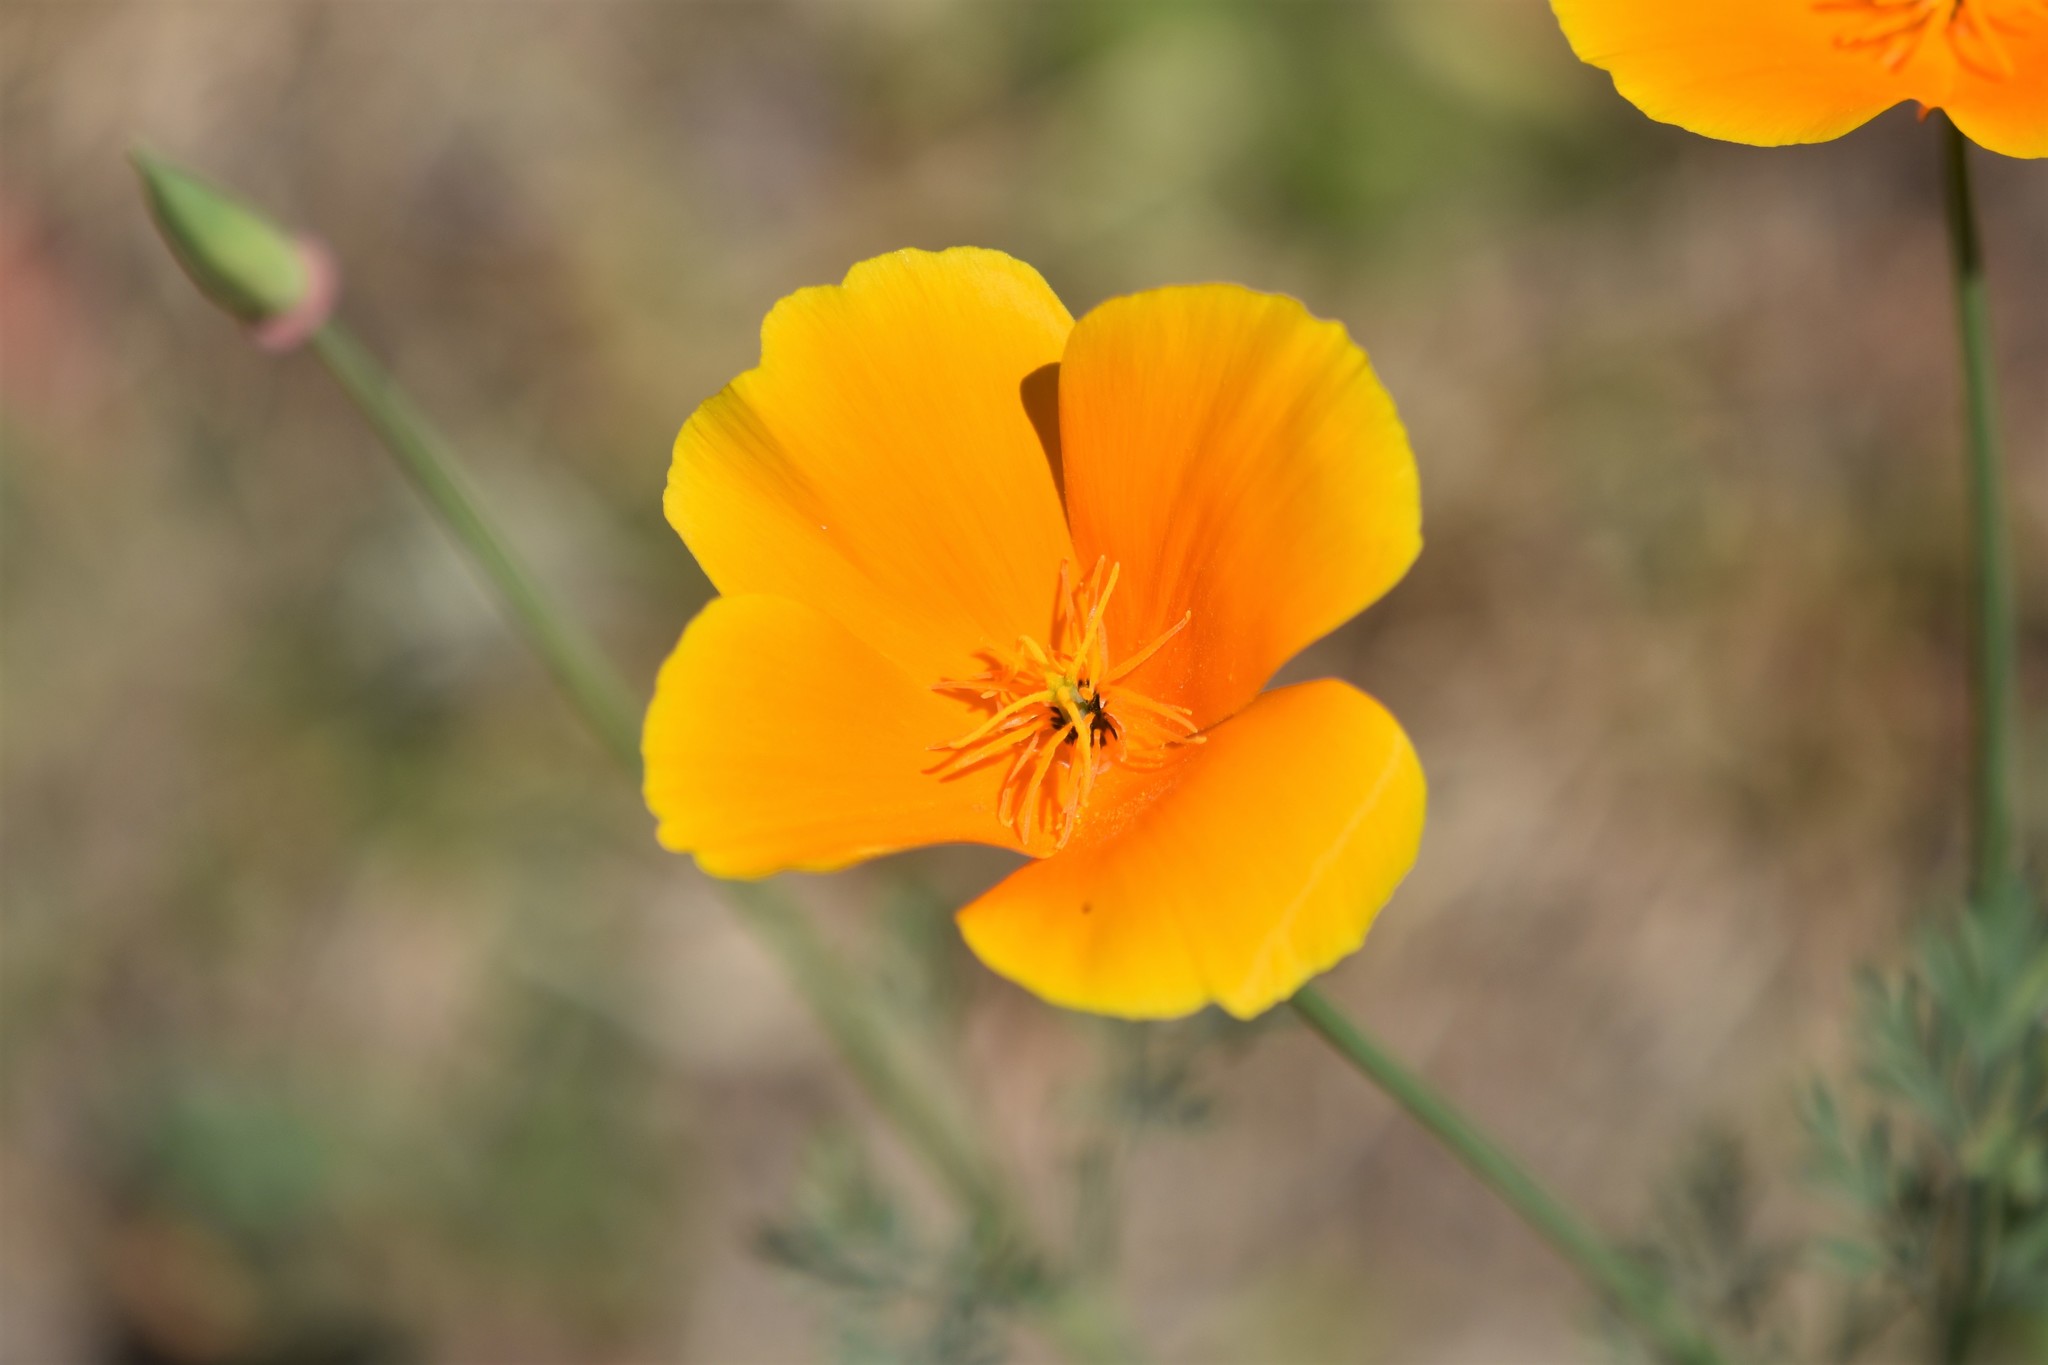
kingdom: Plantae
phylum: Tracheophyta
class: Magnoliopsida
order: Ranunculales
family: Papaveraceae
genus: Eschscholzia
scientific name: Eschscholzia californica
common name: California poppy
